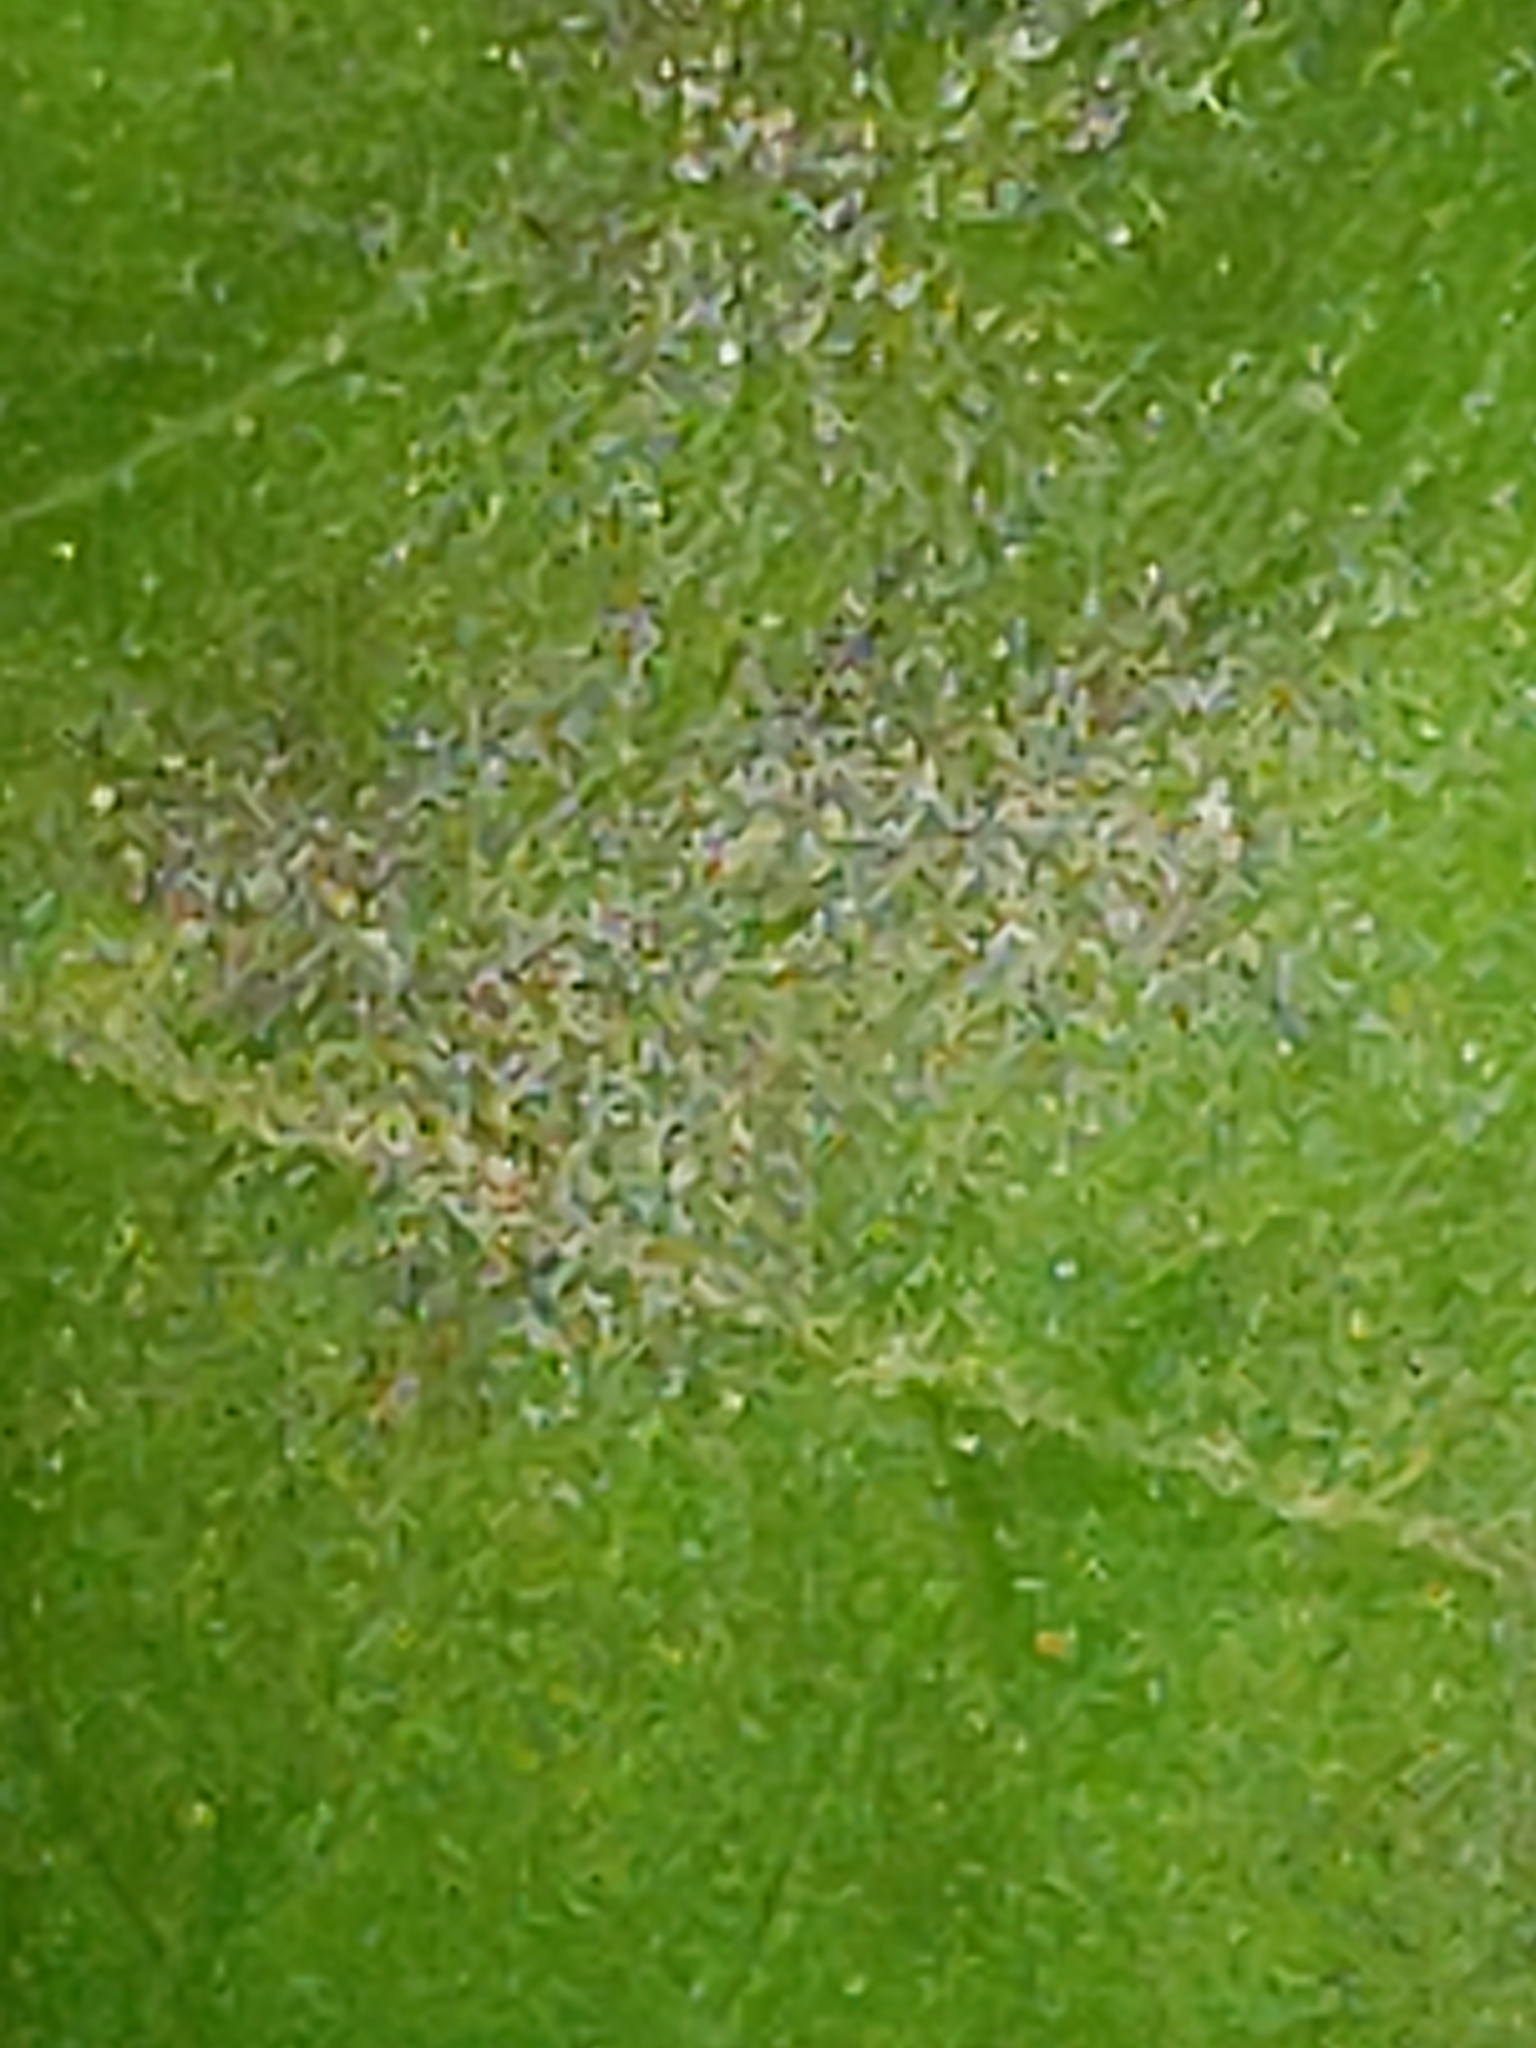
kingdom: Fungi
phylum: Ascomycota
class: Leotiomycetes
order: Helotiales
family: Erysiphaceae
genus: Erysiphe
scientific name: Erysiphe lonicerae
